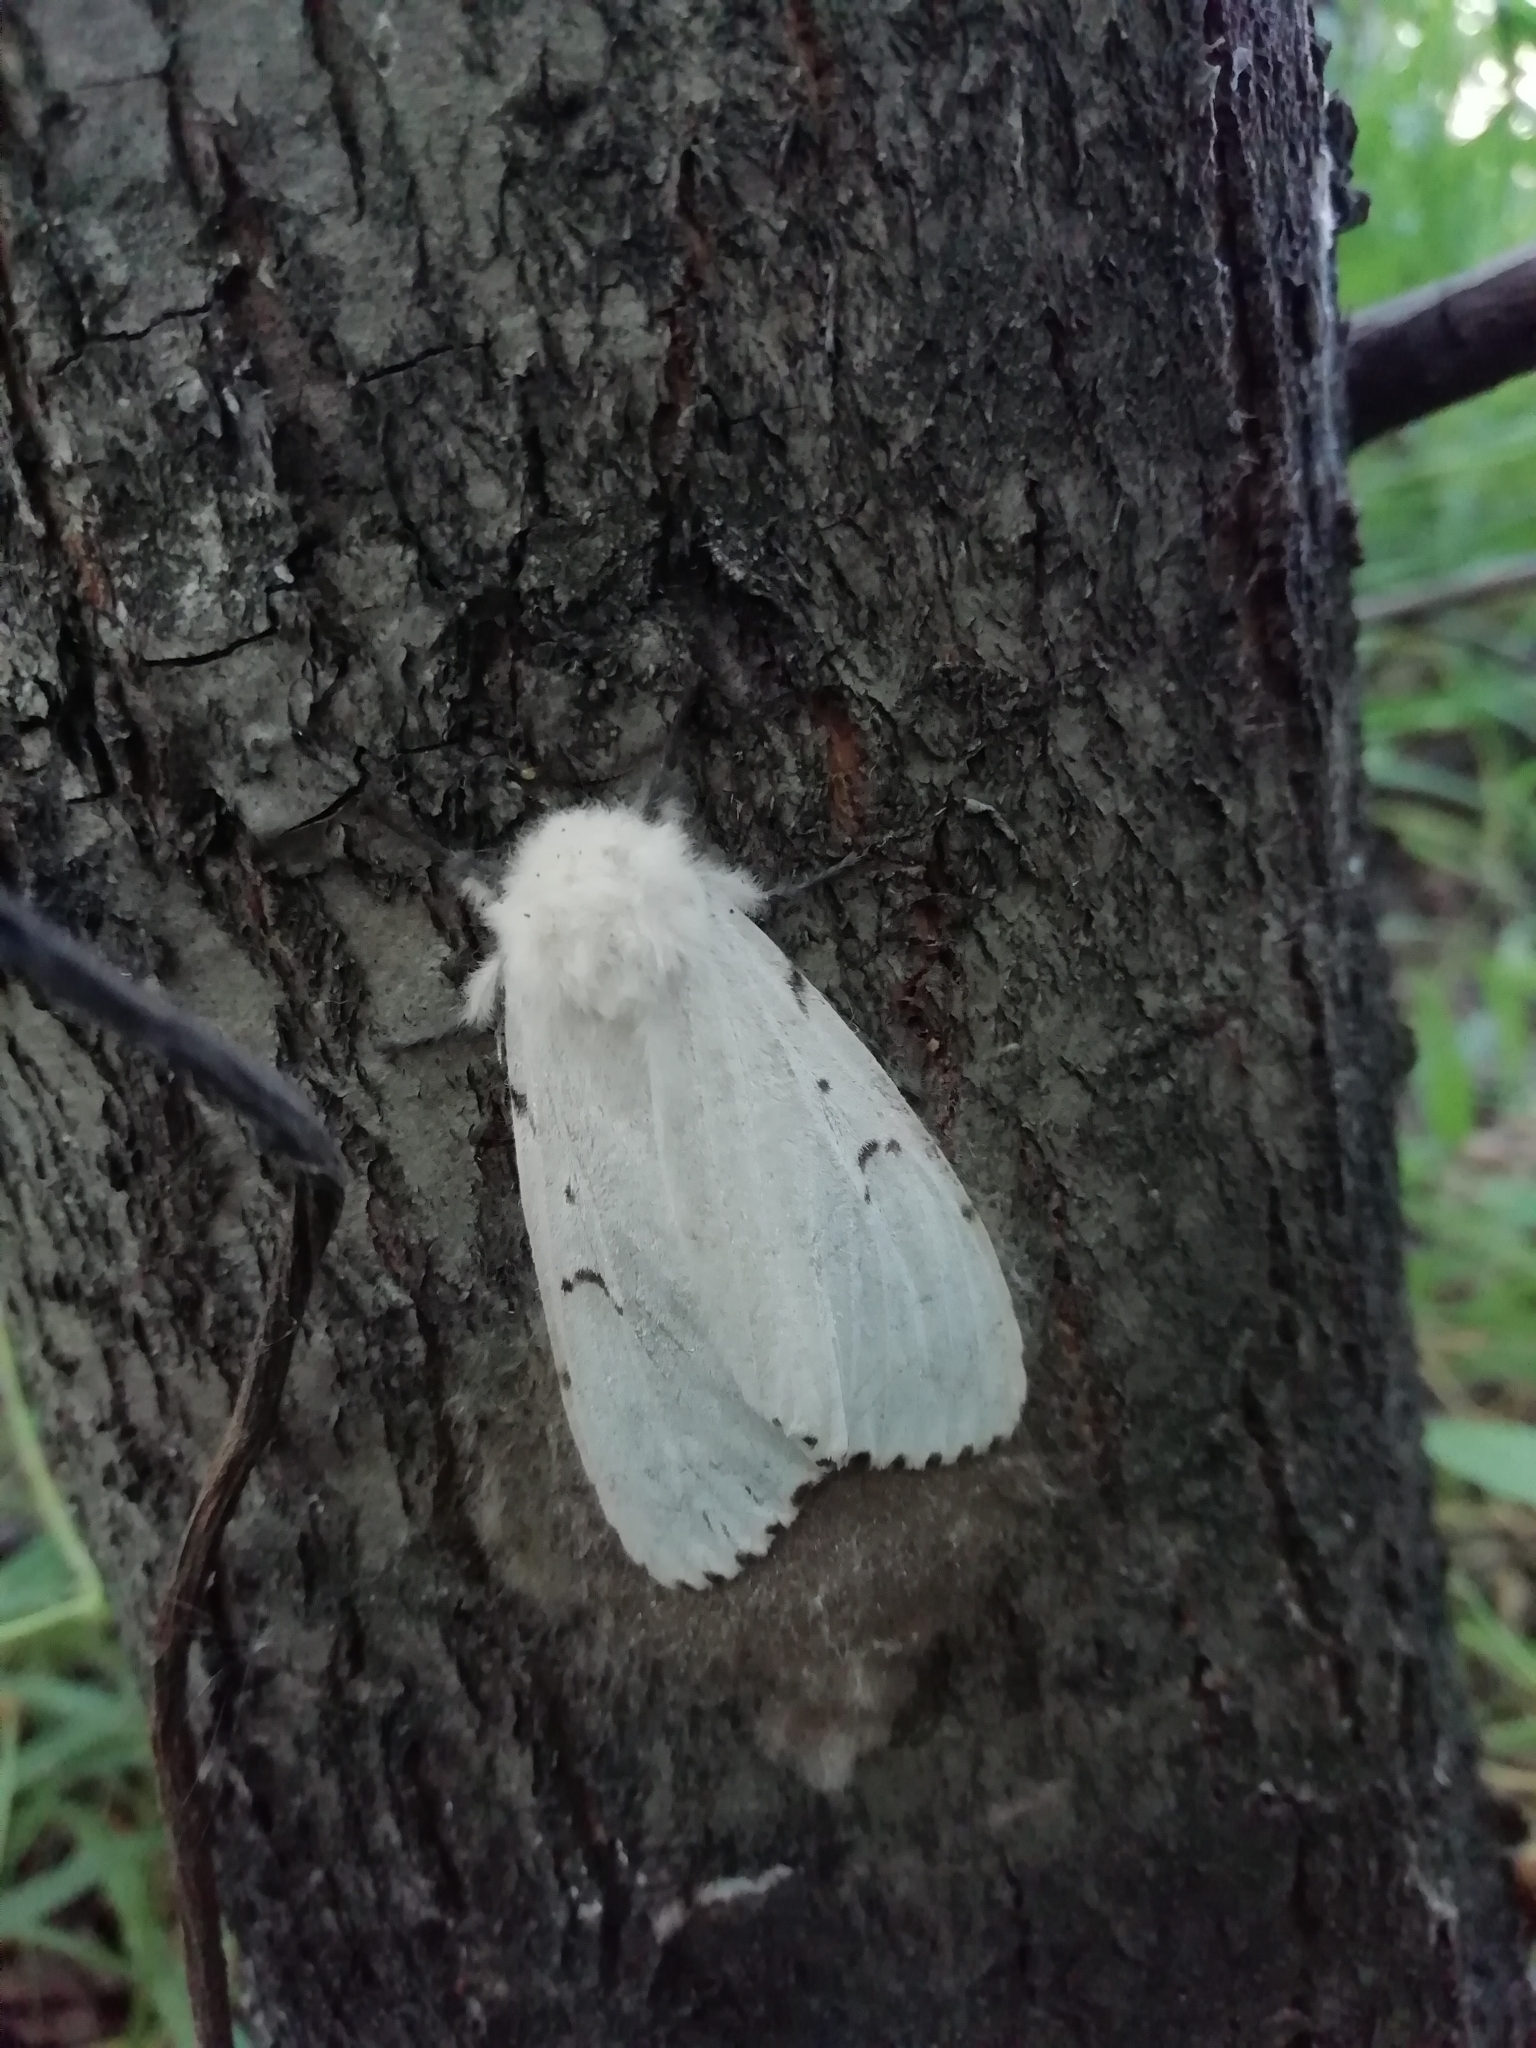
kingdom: Animalia
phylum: Arthropoda
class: Insecta
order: Lepidoptera
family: Erebidae
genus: Lymantria
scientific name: Lymantria dispar
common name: Gypsy moth
